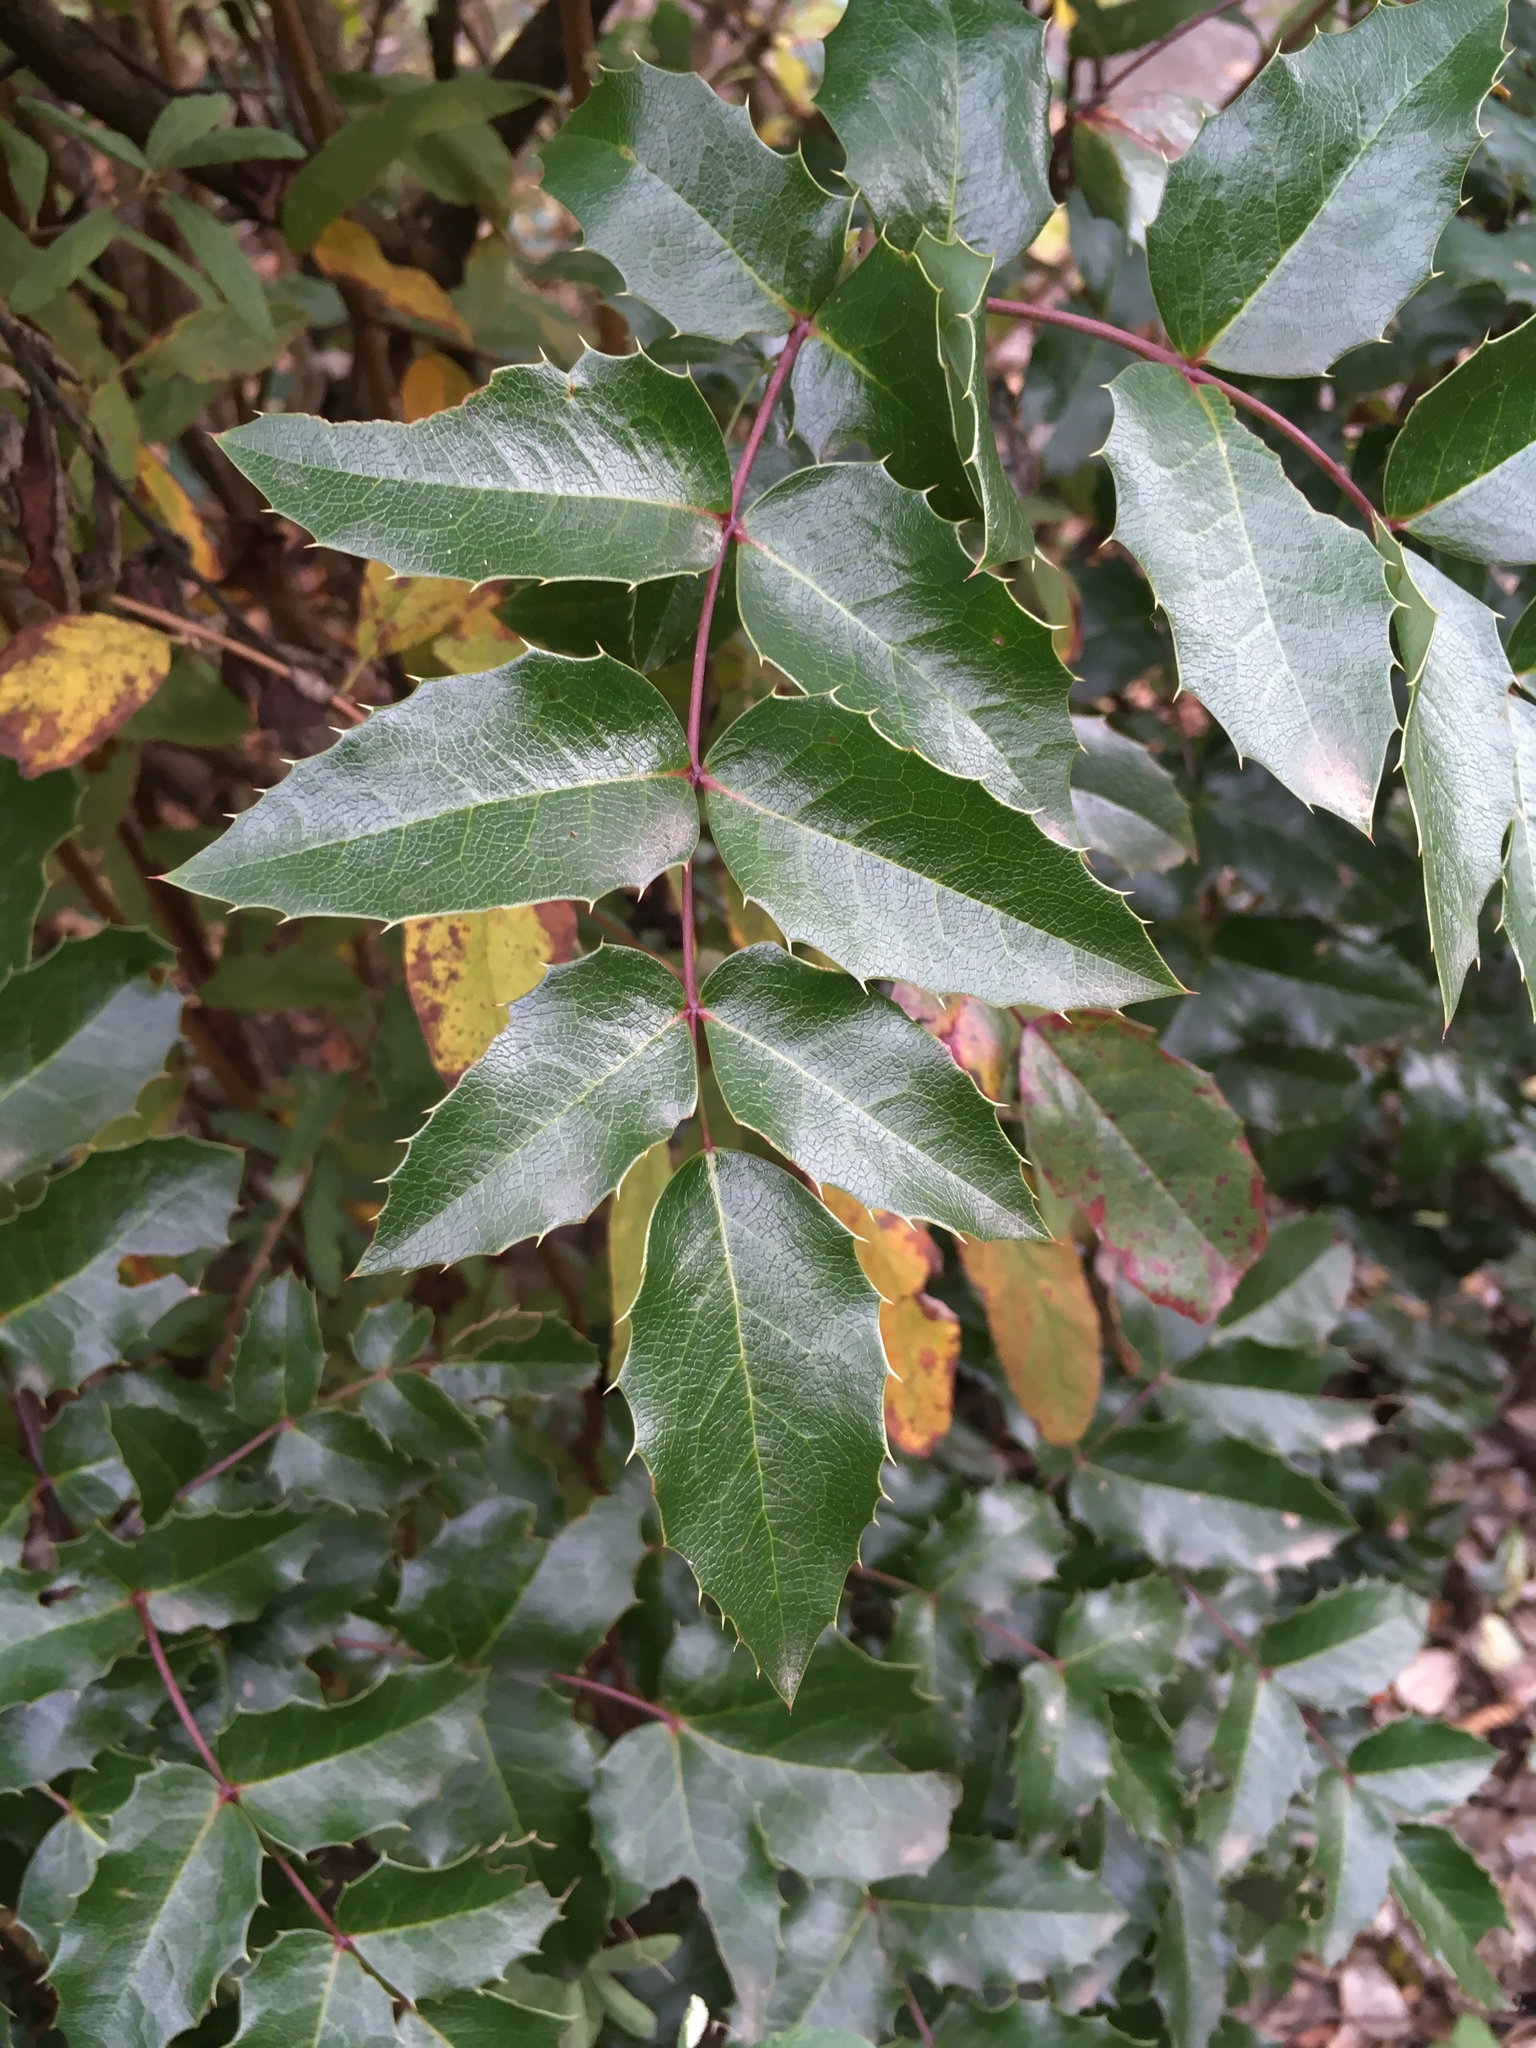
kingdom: Plantae
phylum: Tracheophyta
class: Magnoliopsida
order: Ranunculales
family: Berberidaceae
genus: Mahonia
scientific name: Mahonia aquifolium
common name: Oregon-grape
